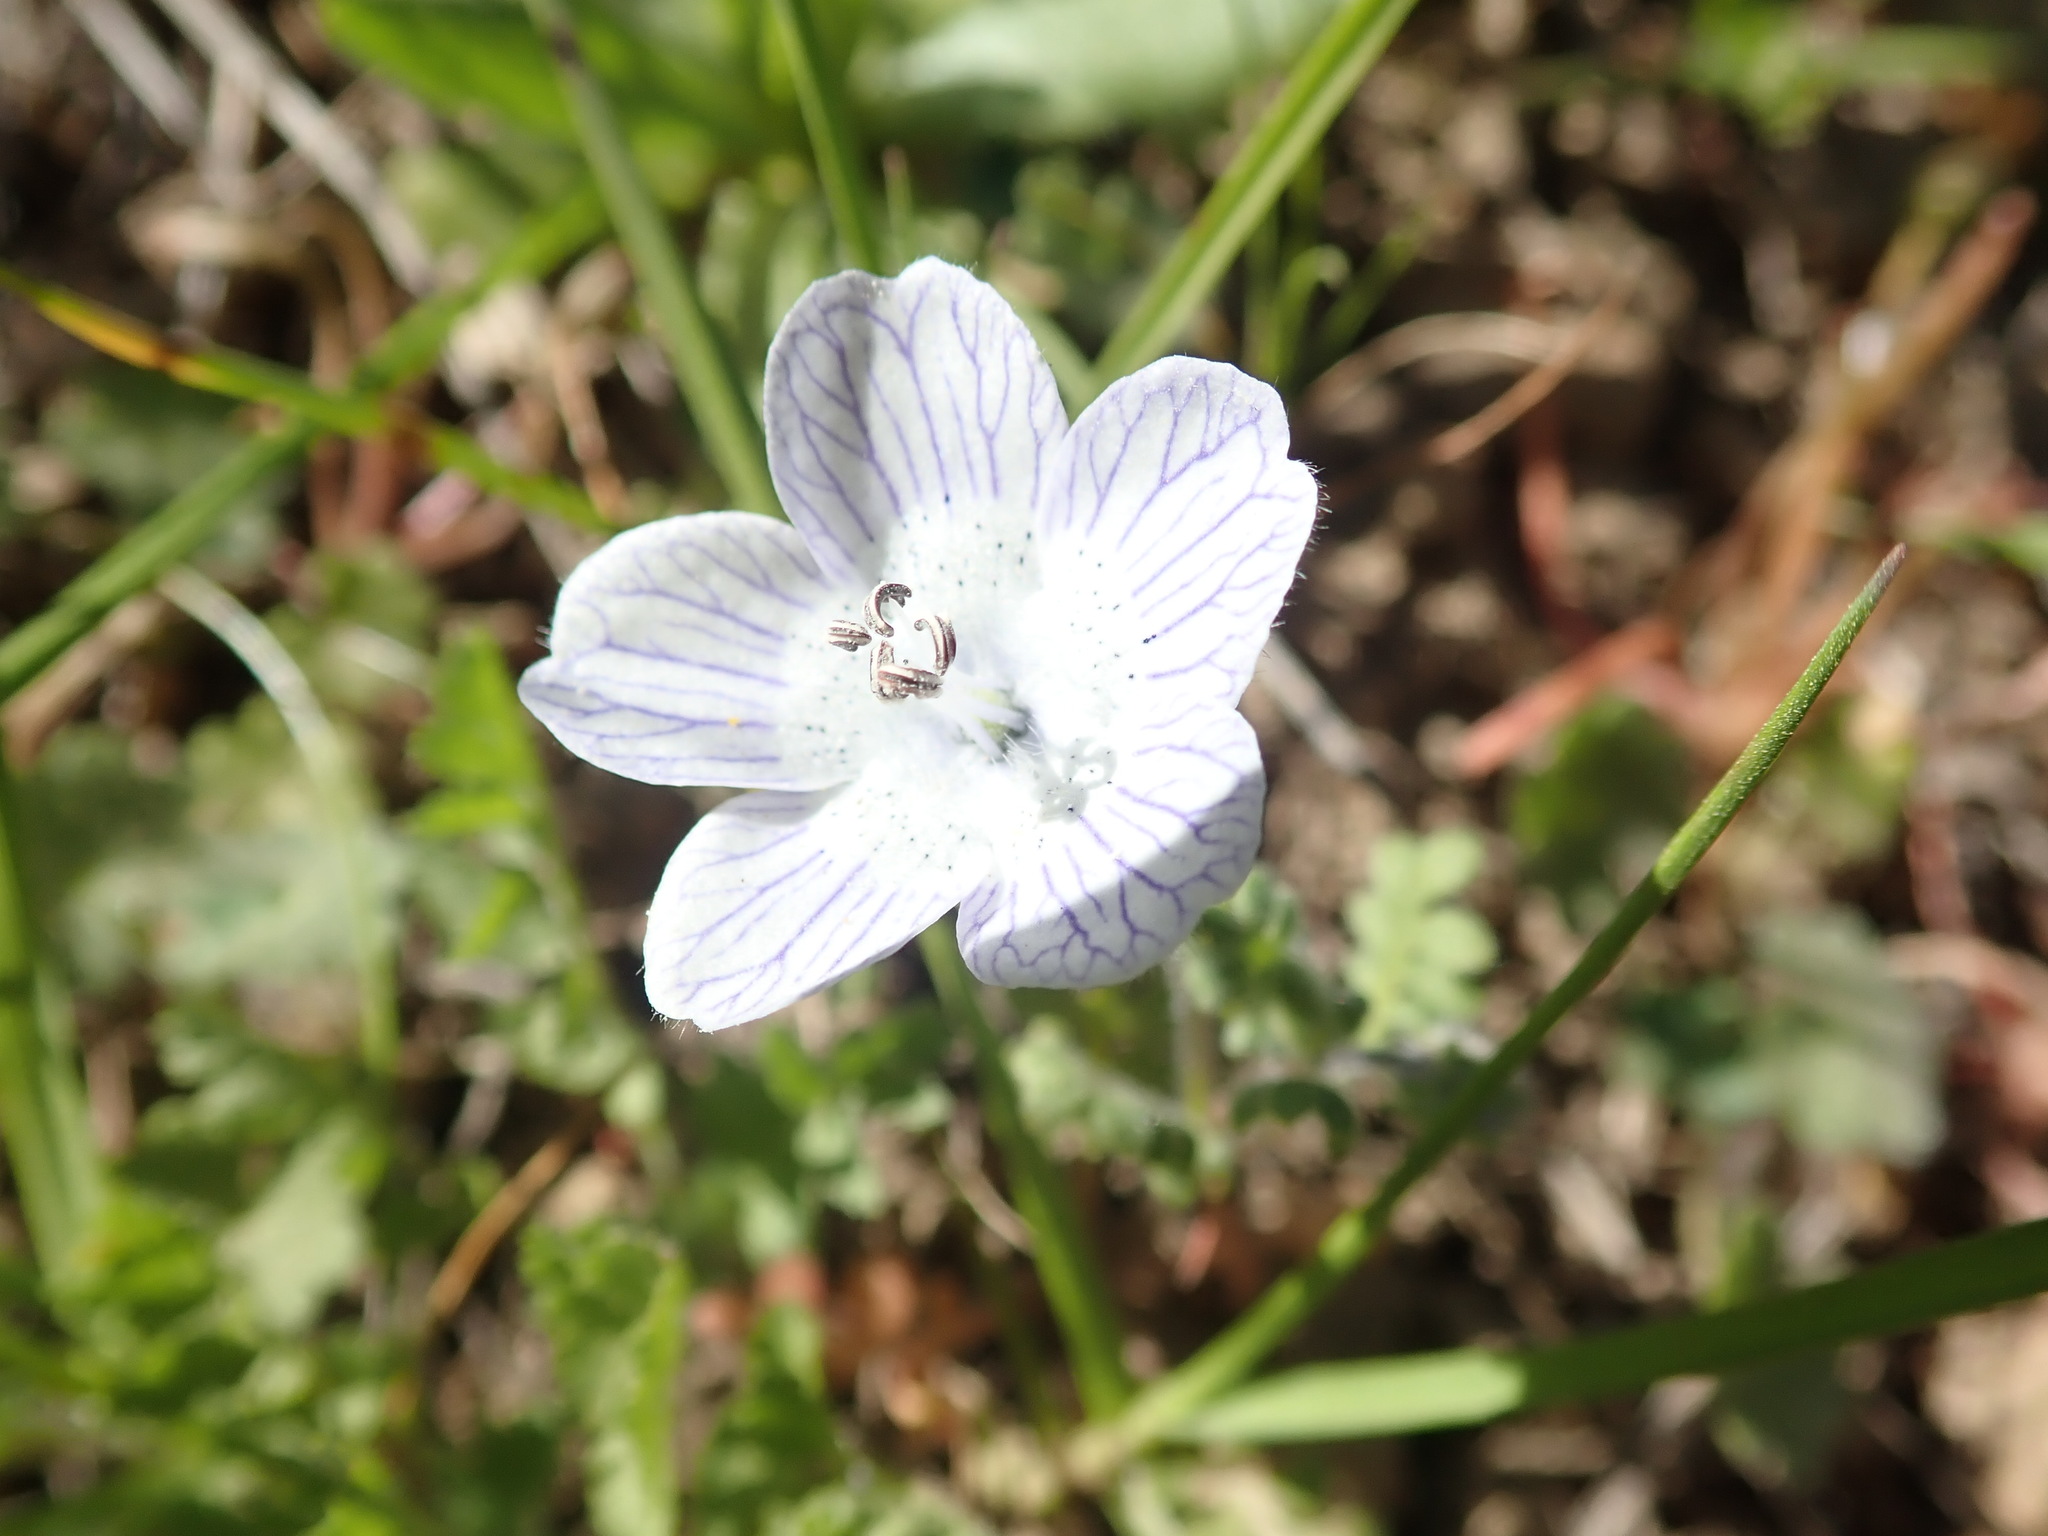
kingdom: Plantae
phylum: Tracheophyta
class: Magnoliopsida
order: Boraginales
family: Hydrophyllaceae
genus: Nemophila
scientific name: Nemophila menziesii
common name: Baby's-blue-eyes
